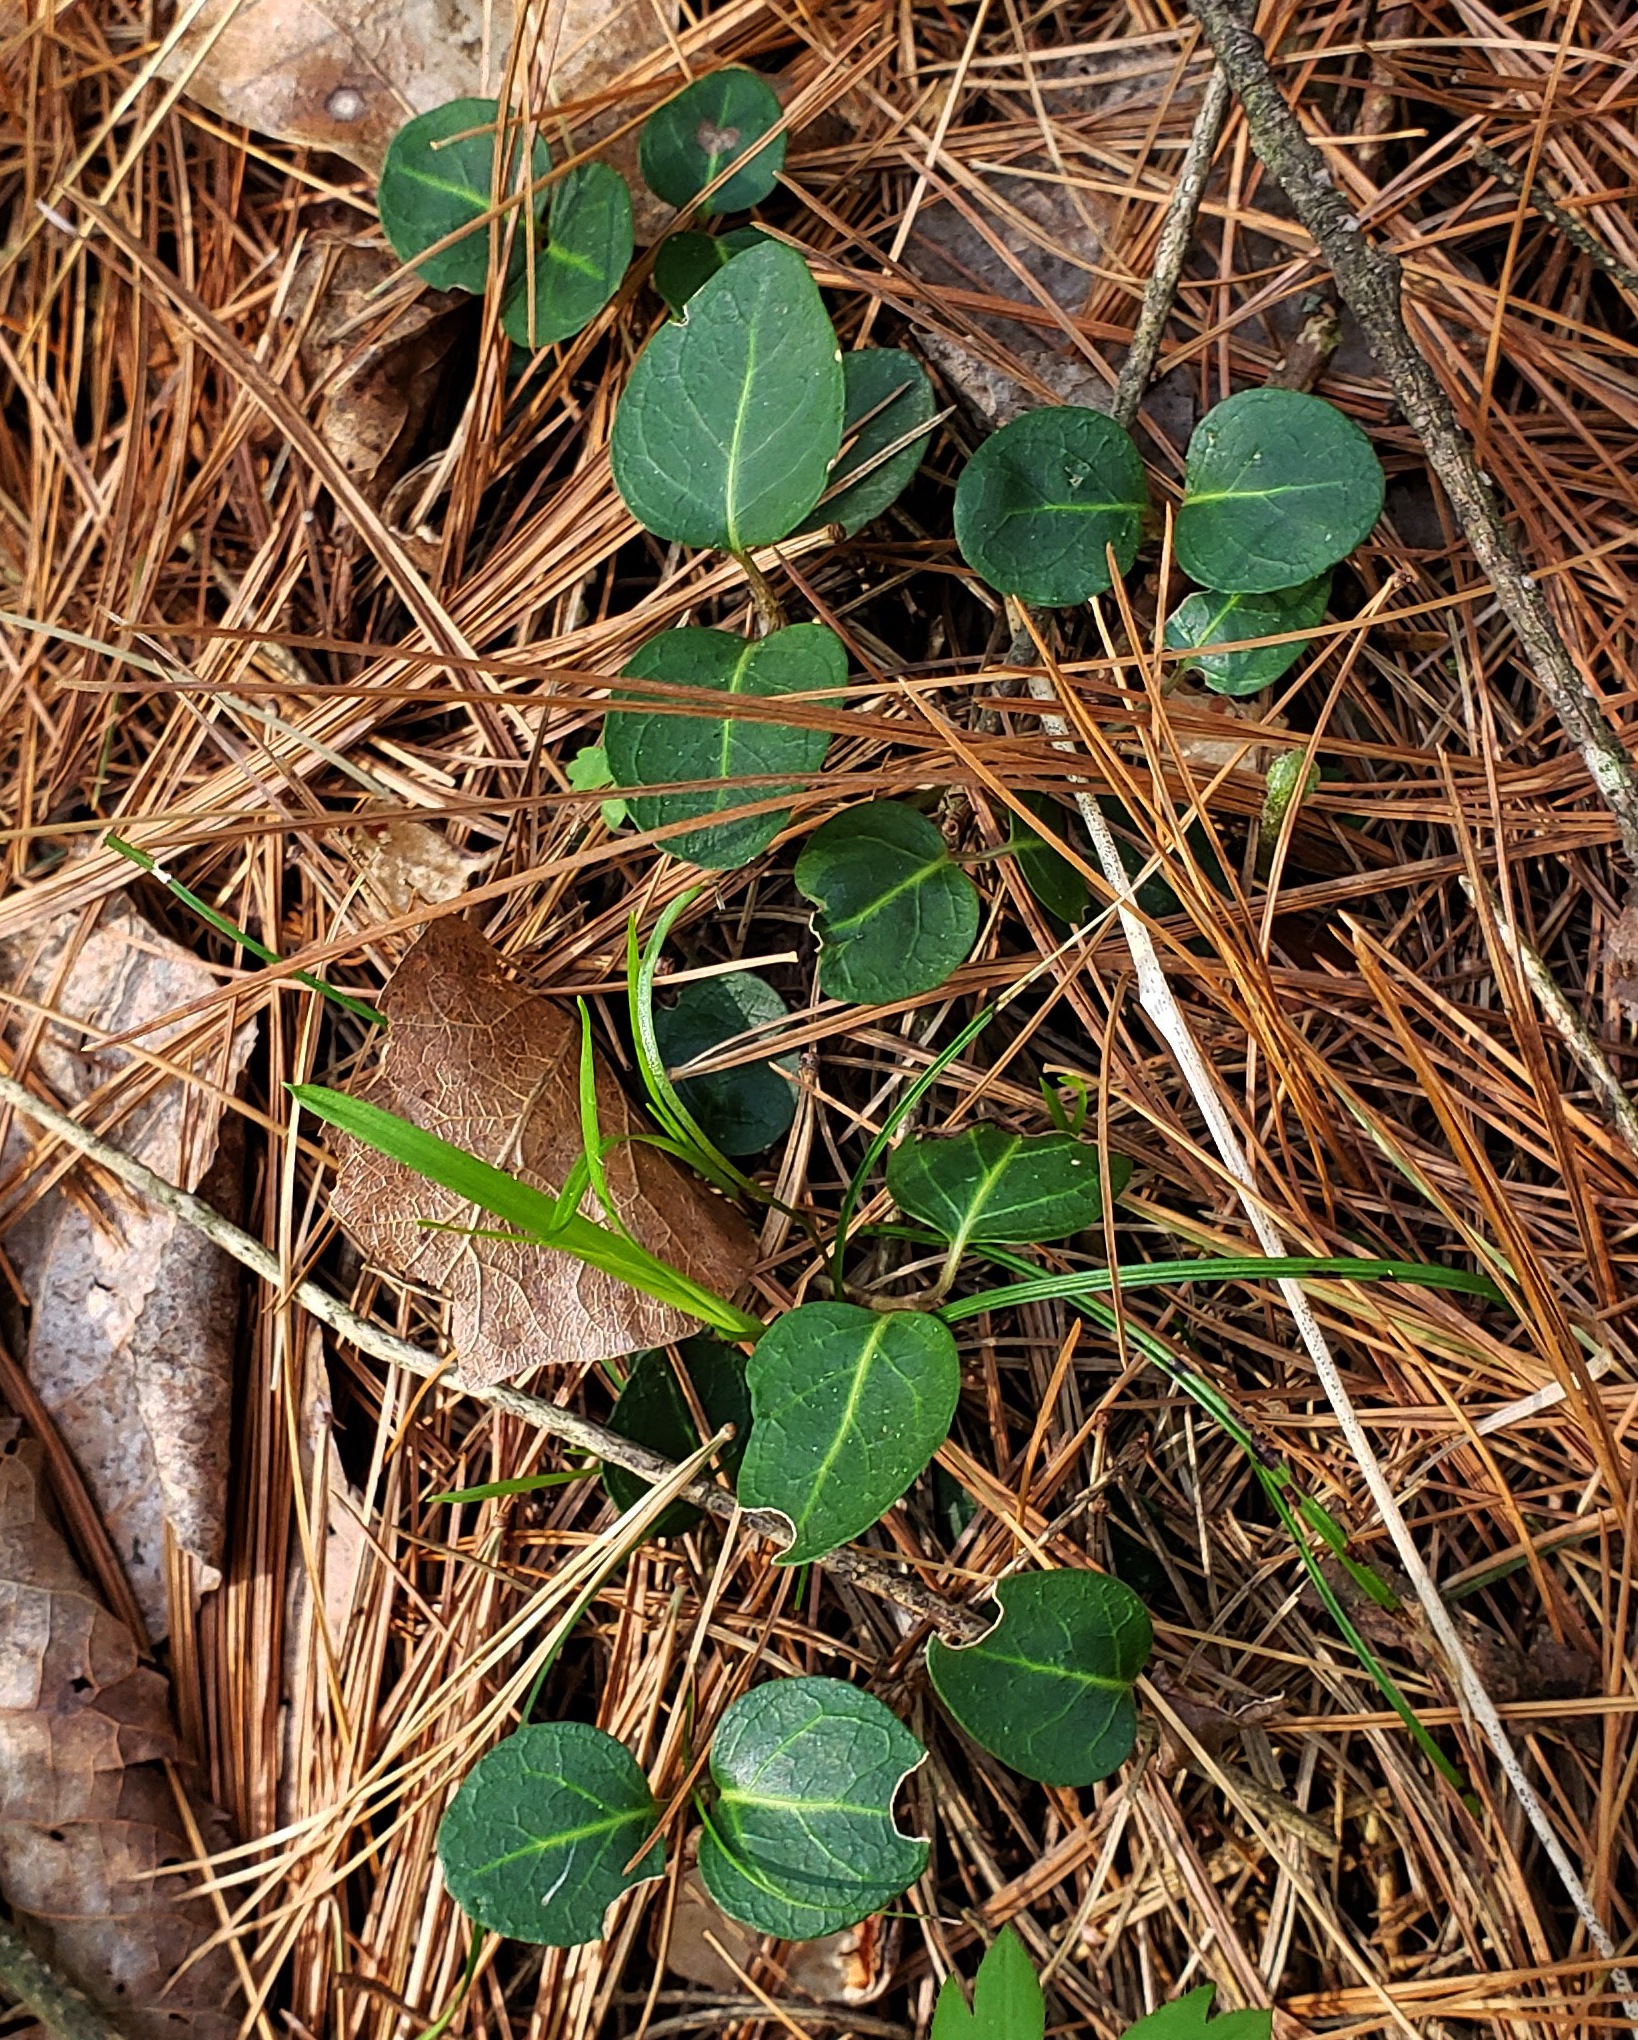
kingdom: Plantae
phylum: Tracheophyta
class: Magnoliopsida
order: Gentianales
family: Rubiaceae
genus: Mitchella
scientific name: Mitchella repens
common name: Partridge-berry
